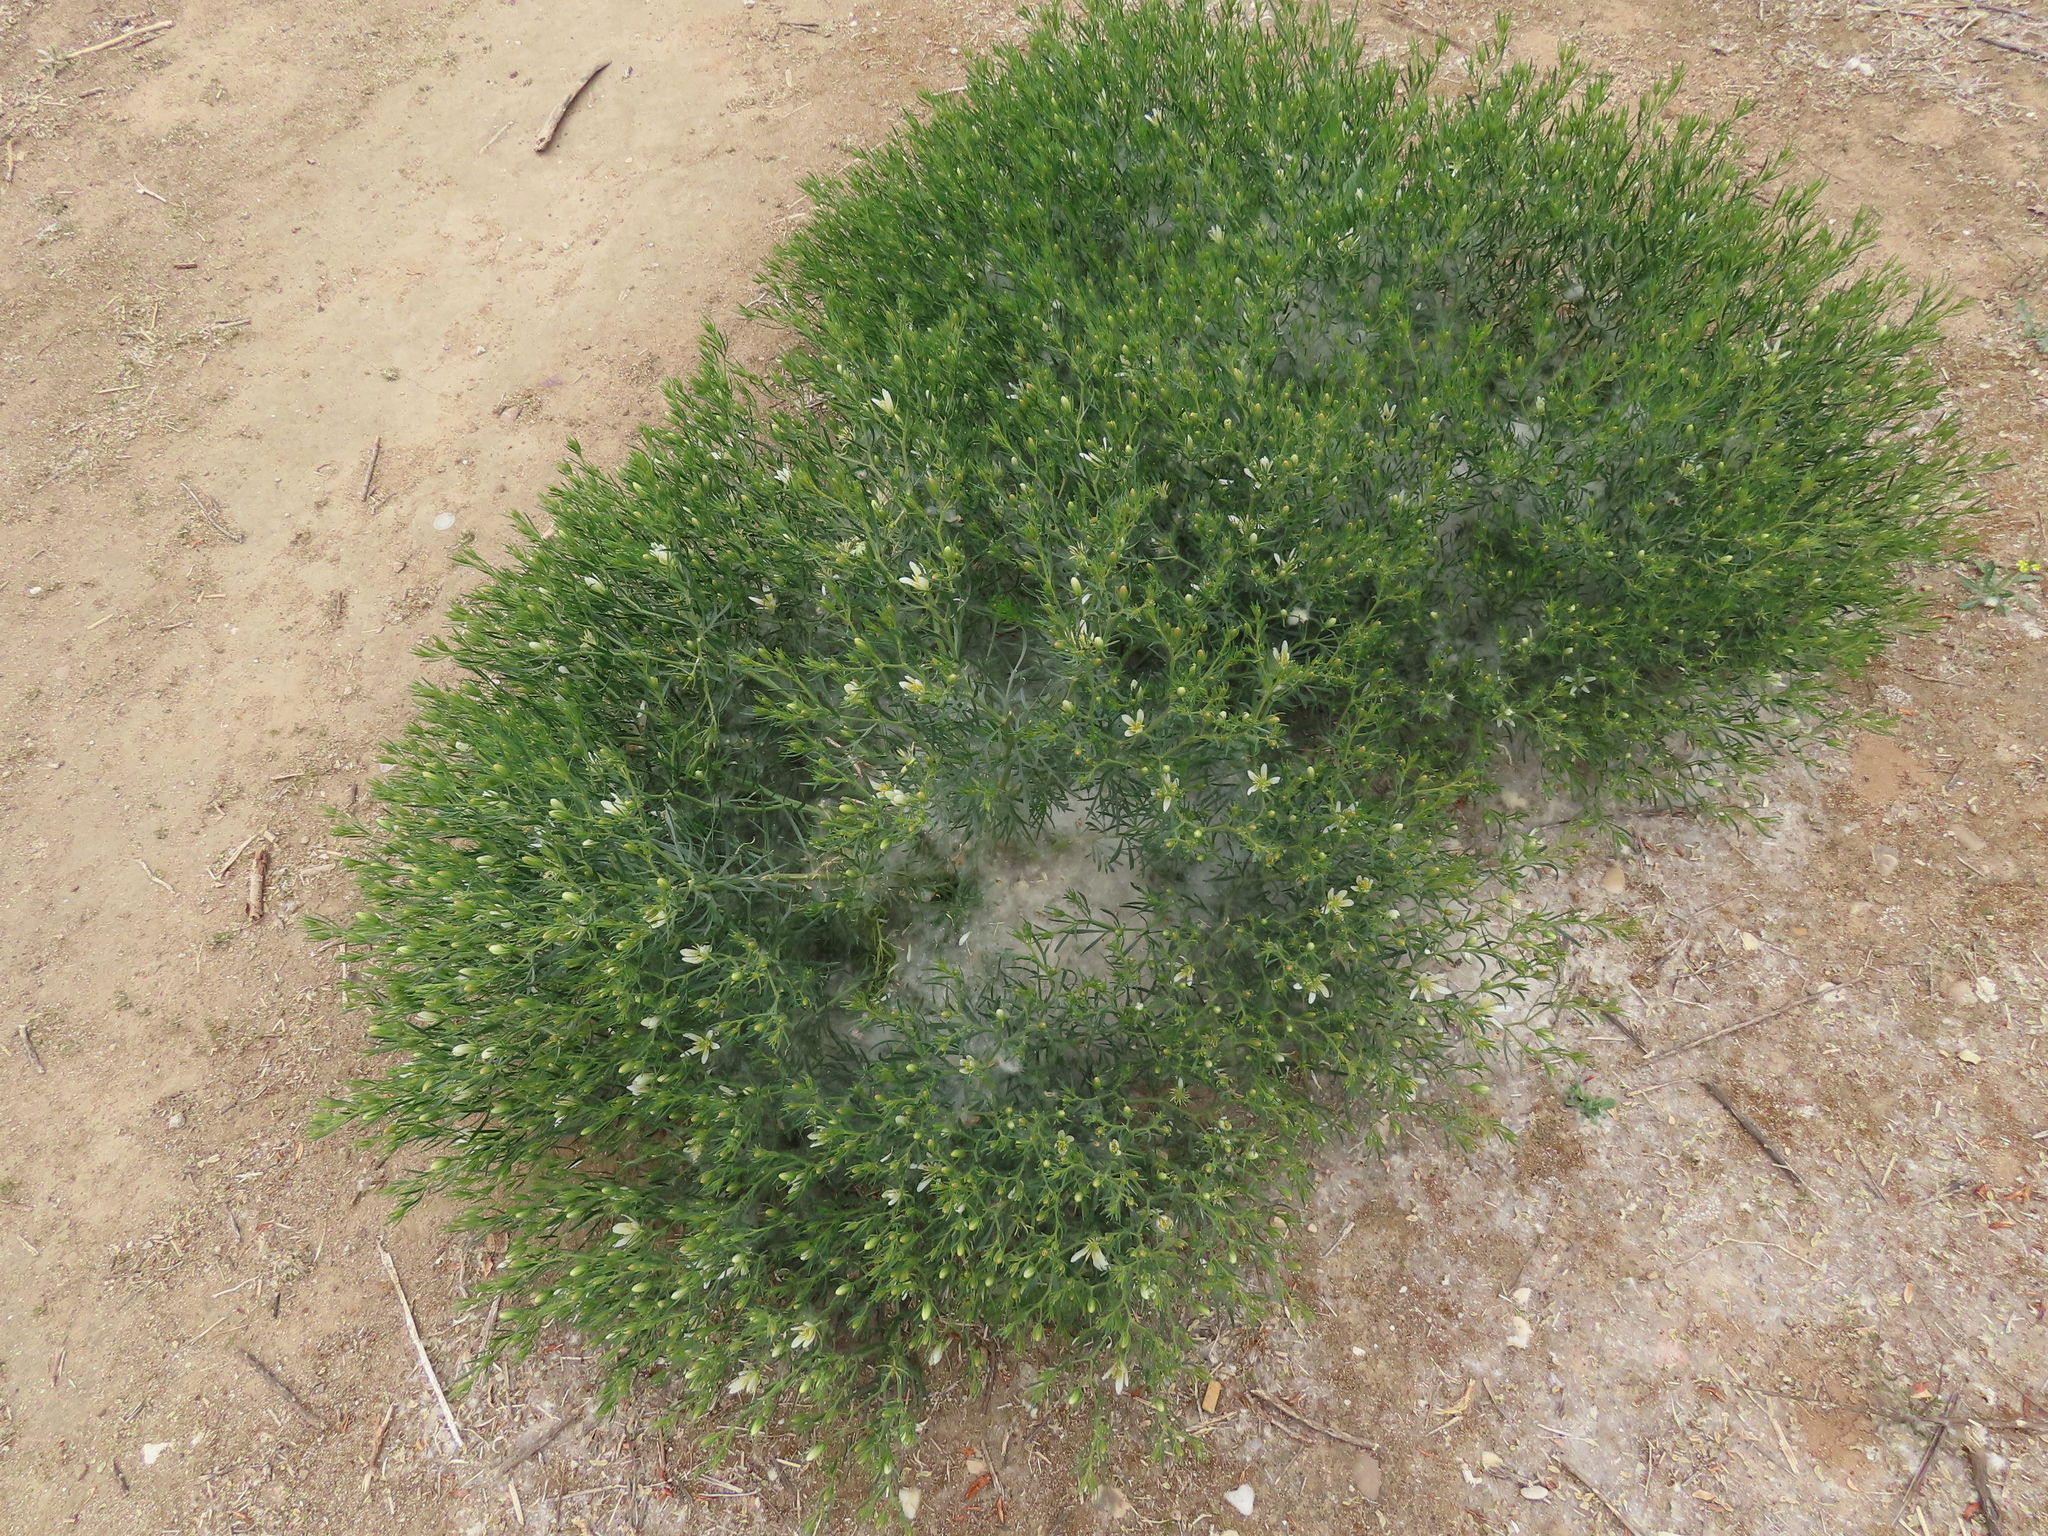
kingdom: Plantae
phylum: Tracheophyta
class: Magnoliopsida
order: Sapindales
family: Tetradiclidaceae
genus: Peganum
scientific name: Peganum harmala
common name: Harmal peganum
